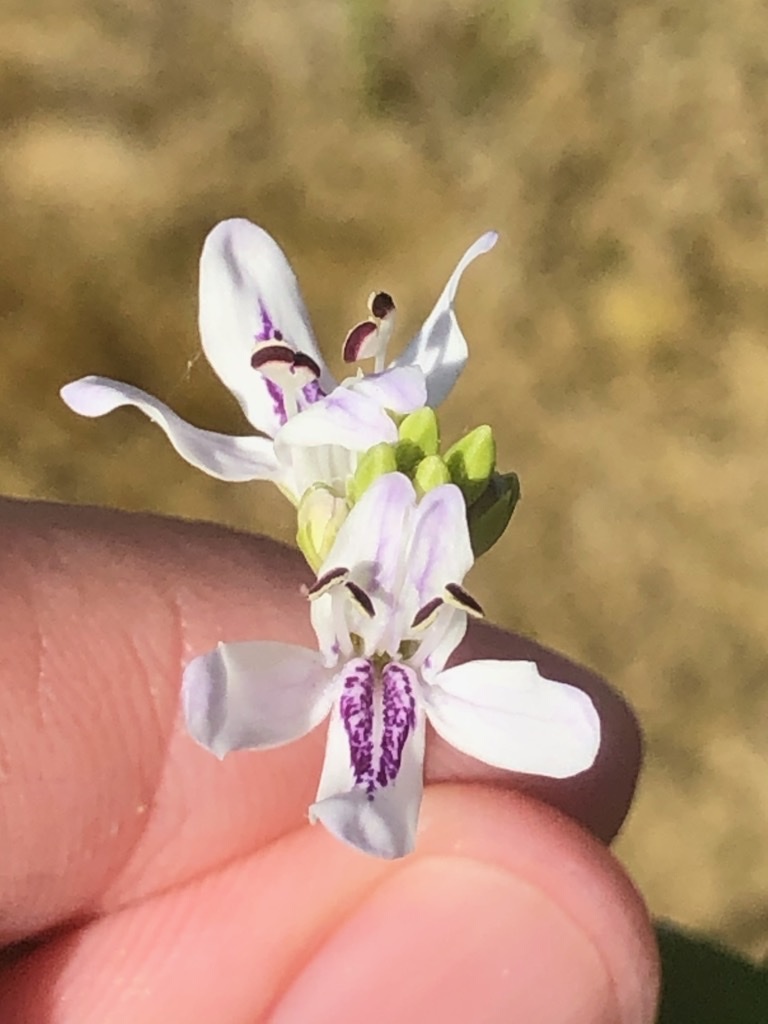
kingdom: Plantae
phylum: Tracheophyta
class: Magnoliopsida
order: Lamiales
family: Acanthaceae
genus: Dianthera
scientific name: Dianthera americana
